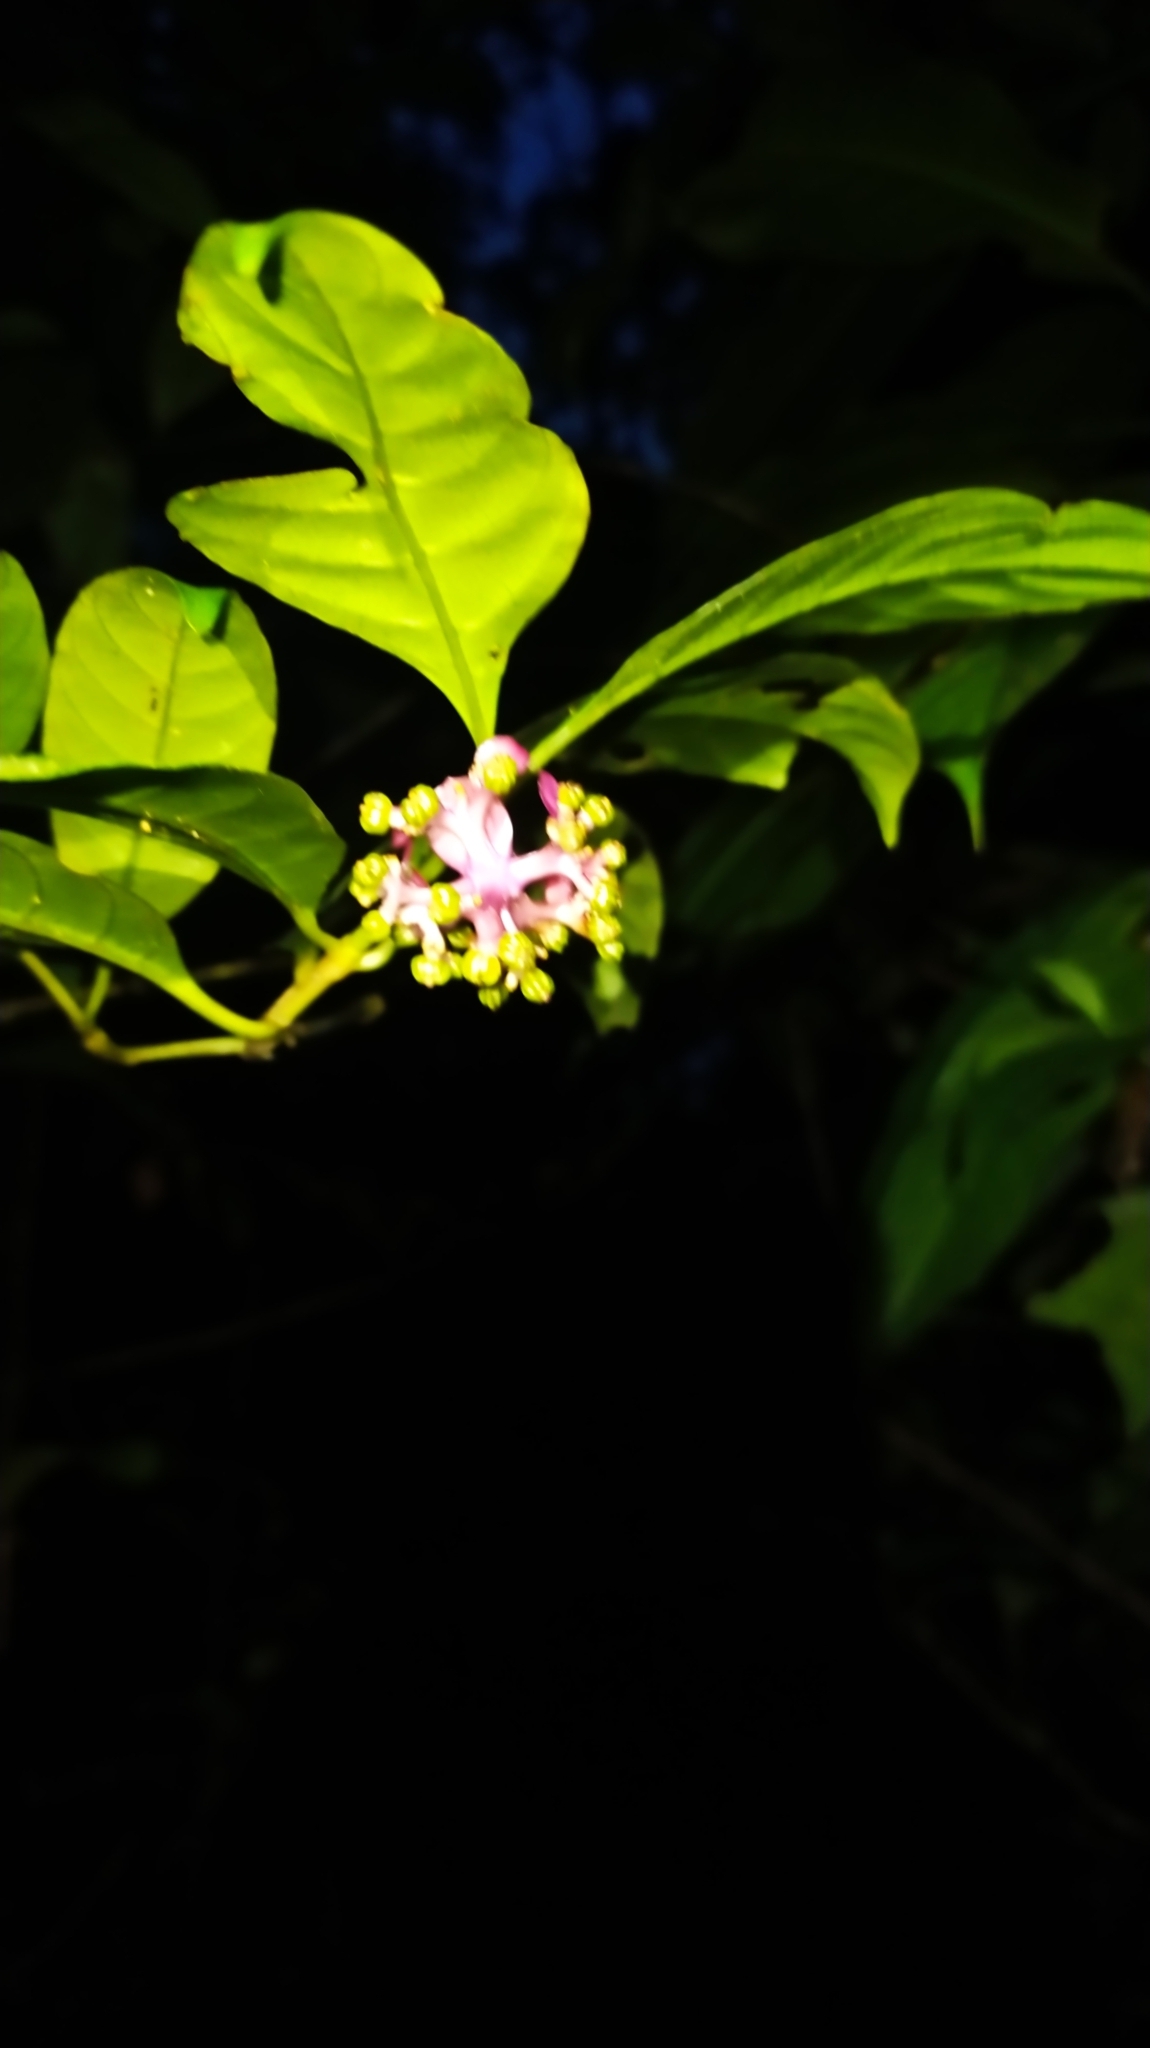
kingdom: Plantae
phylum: Tracheophyta
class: Magnoliopsida
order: Gentianales
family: Rubiaceae
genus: Palicourea
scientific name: Palicourea dichotoma
